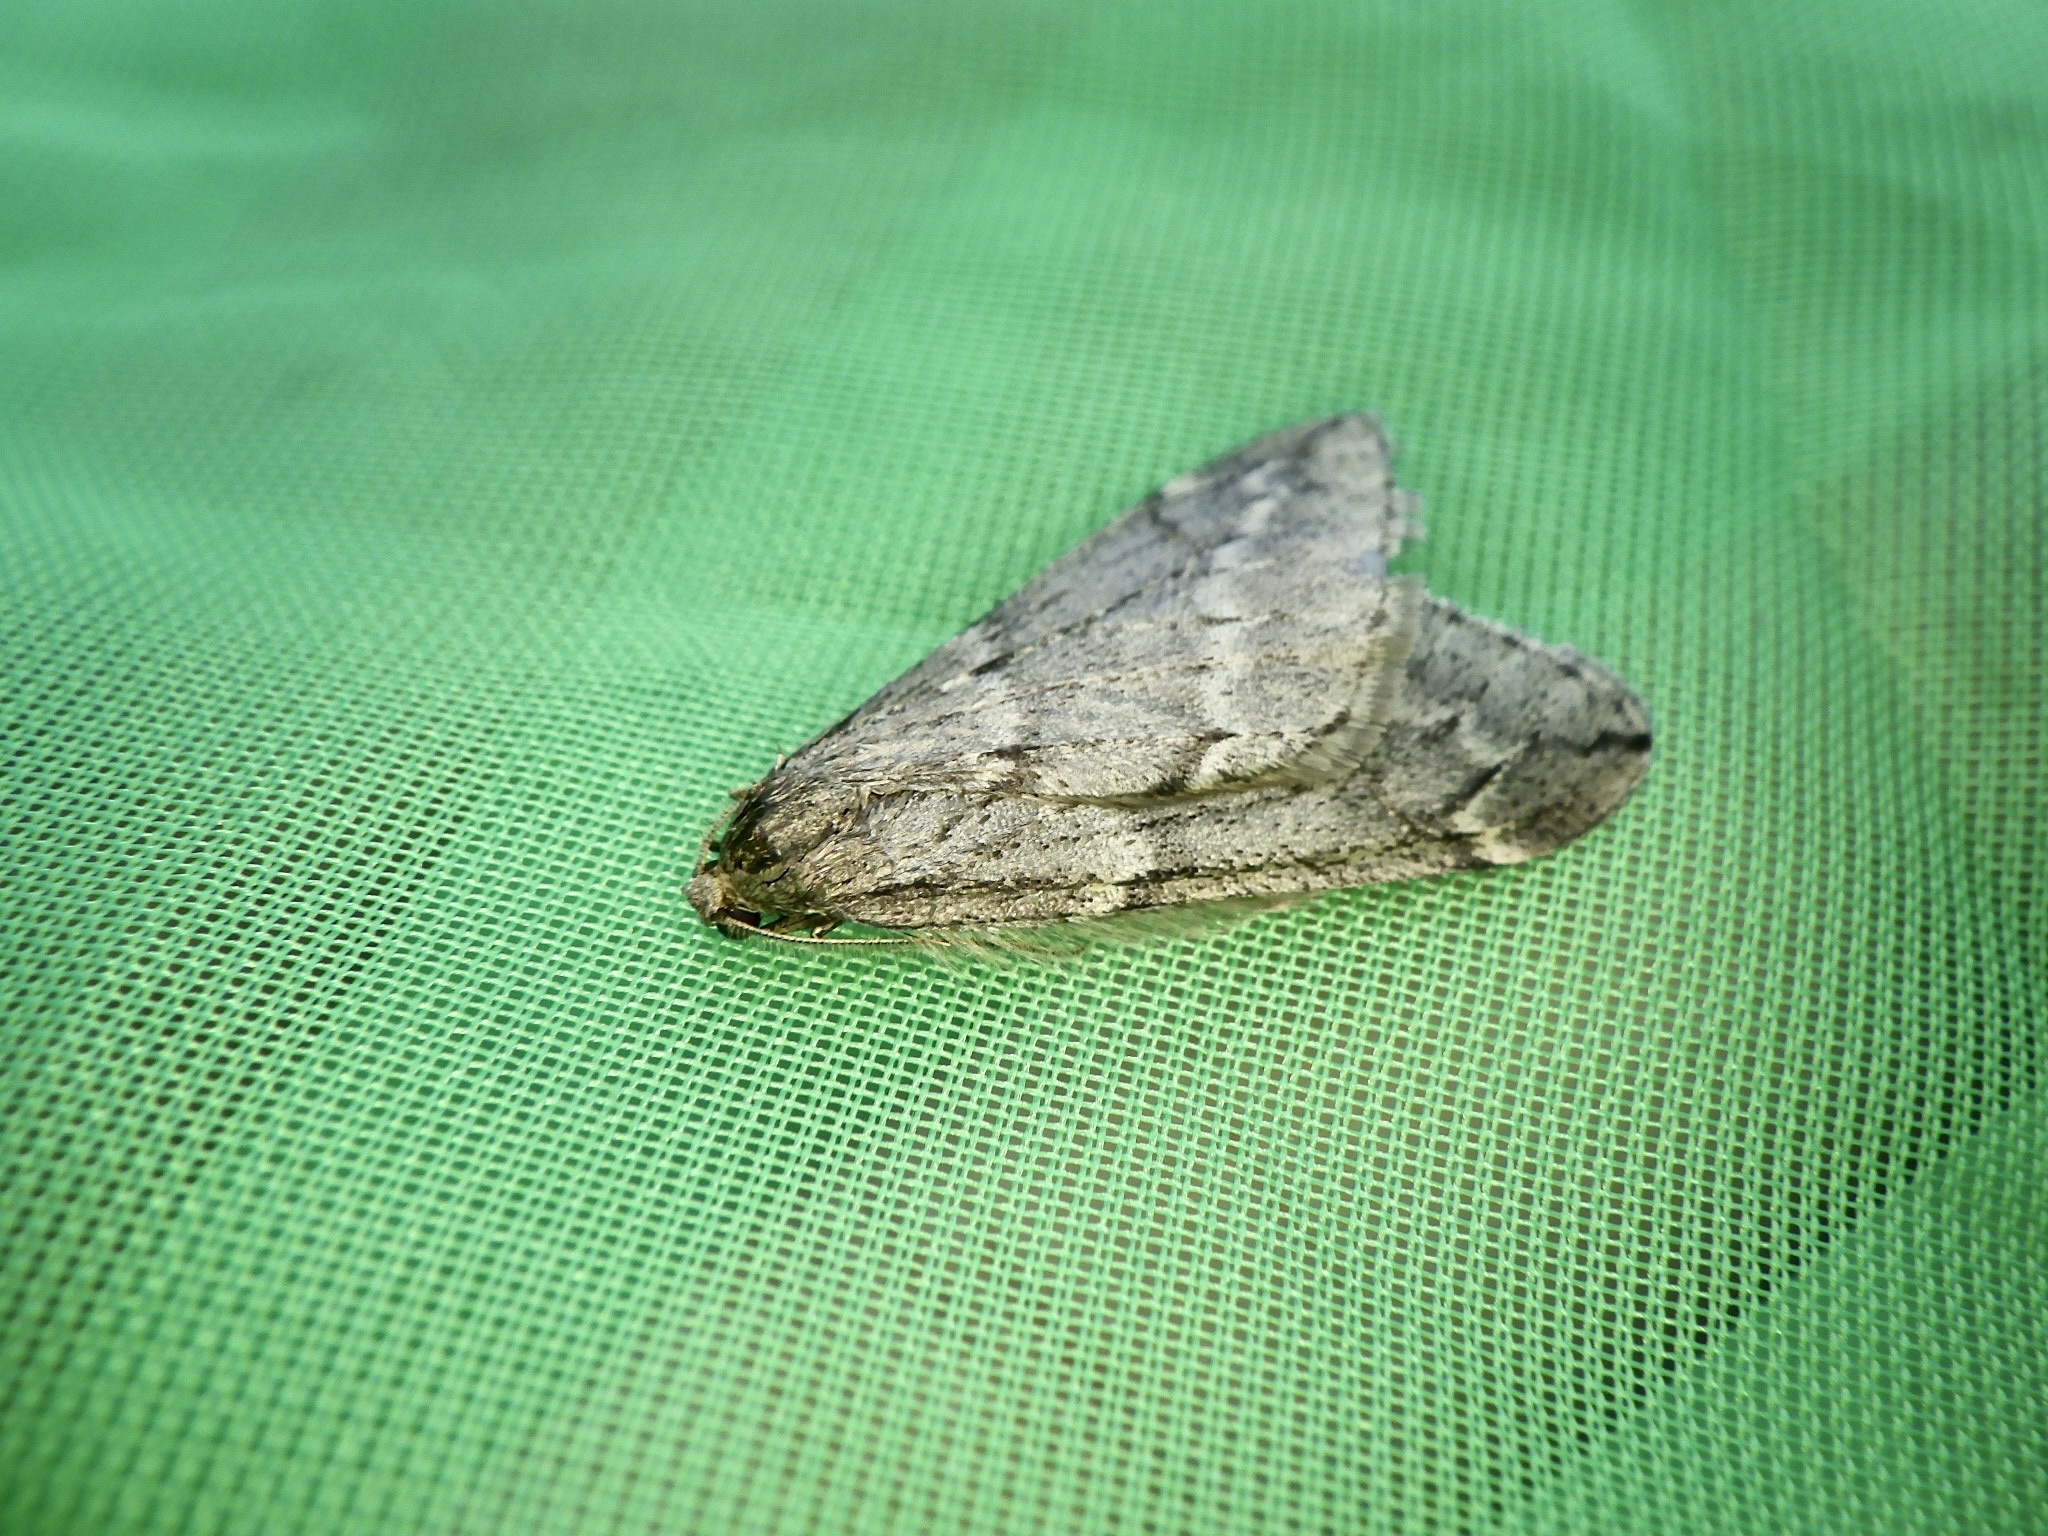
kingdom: Animalia
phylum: Arthropoda
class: Insecta
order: Lepidoptera
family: Geometridae
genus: Alsophila
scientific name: Alsophila japonensis
